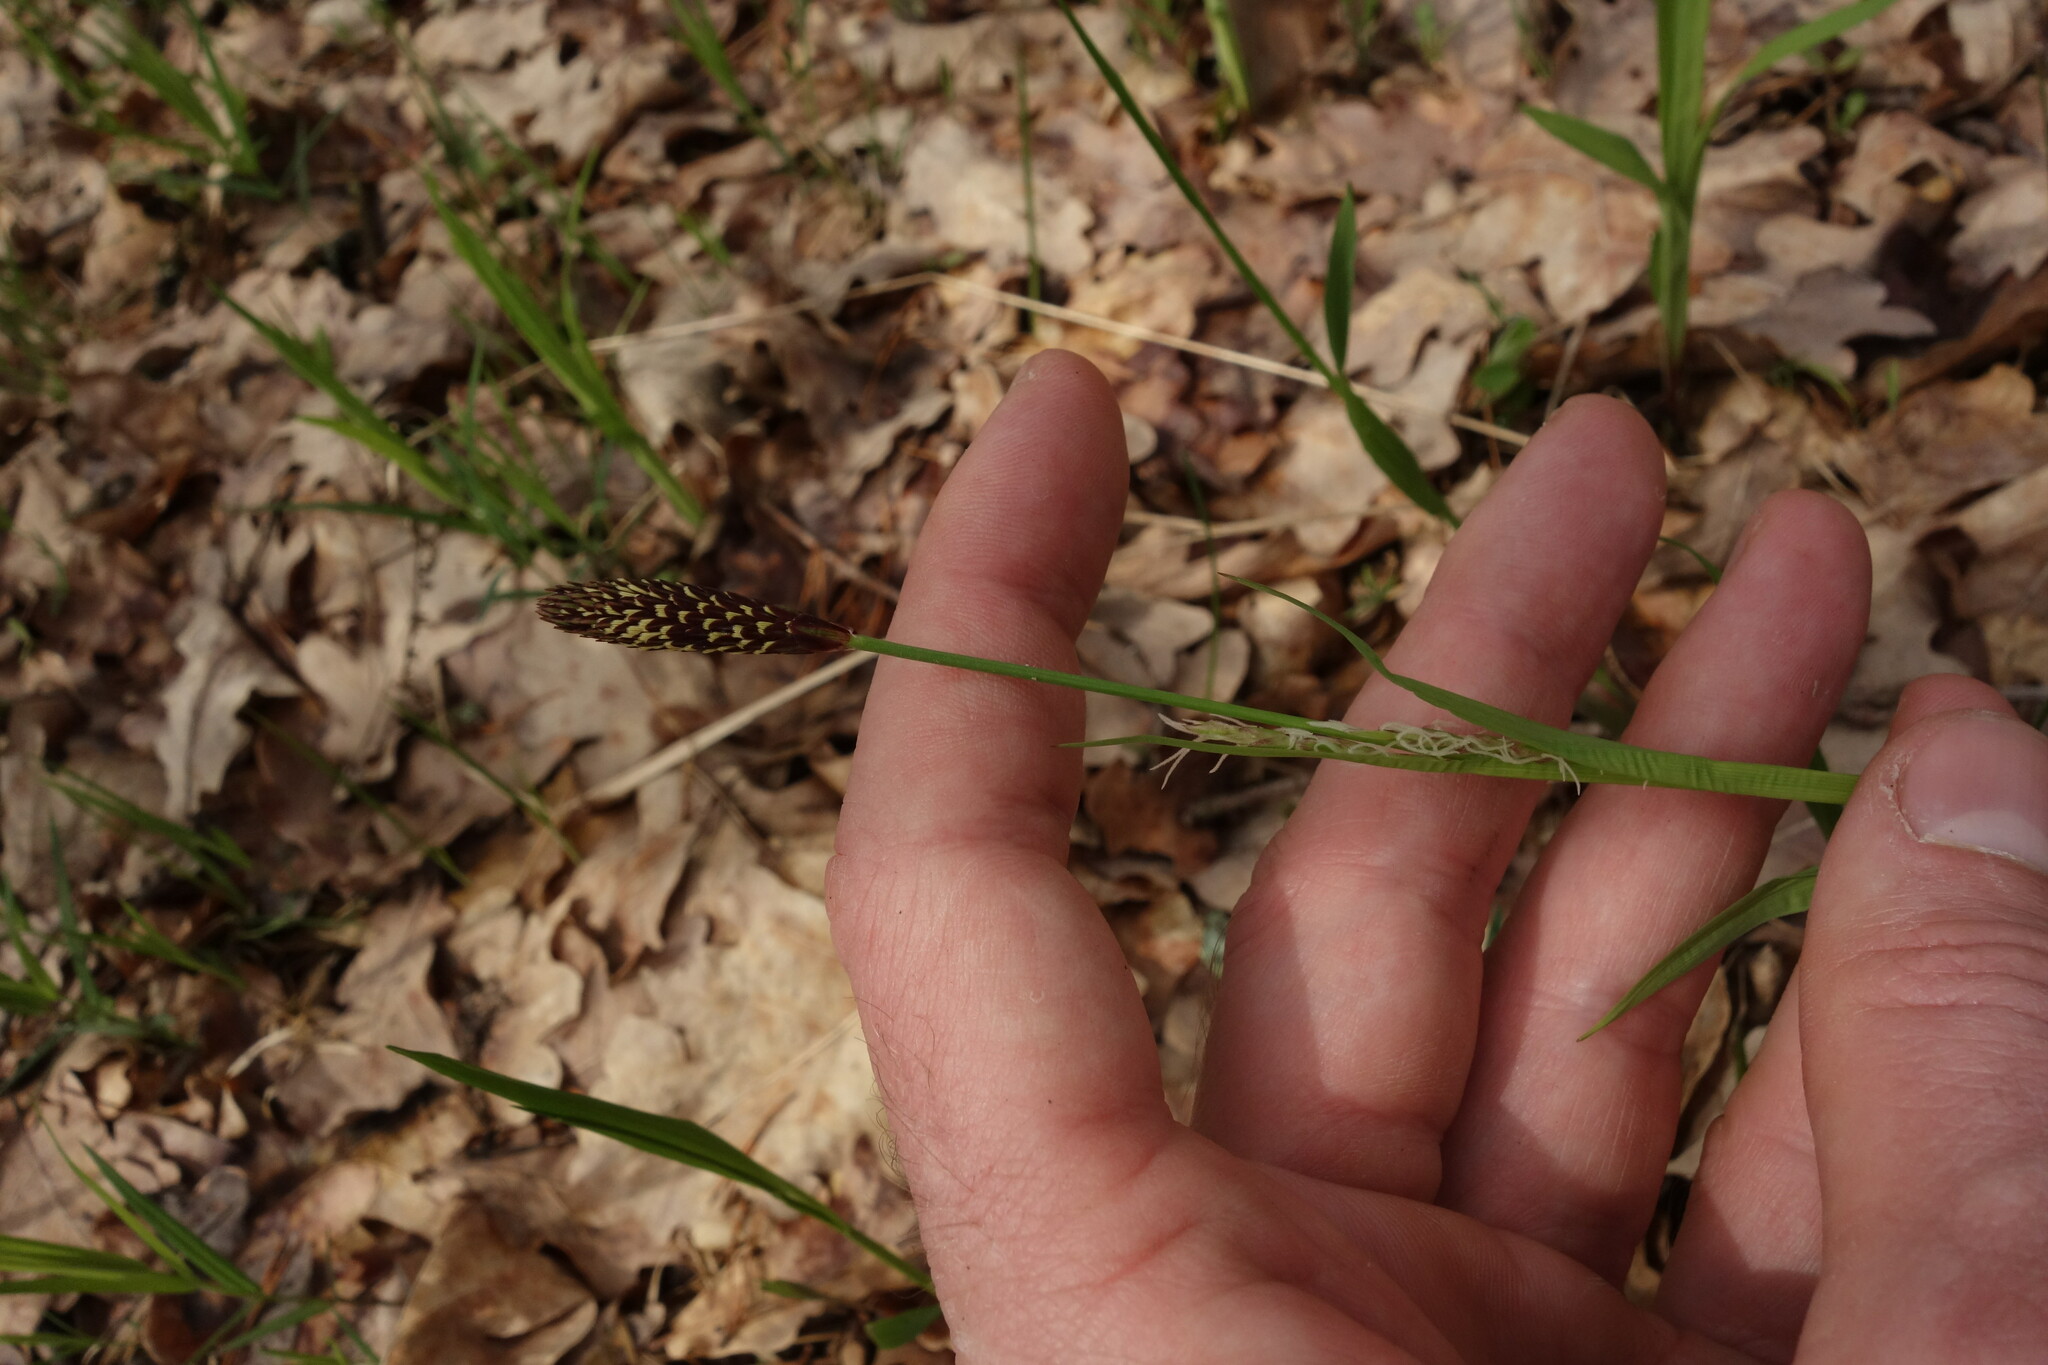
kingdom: Plantae
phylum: Tracheophyta
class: Liliopsida
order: Poales
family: Cyperaceae
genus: Carex
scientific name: Carex pilosa
